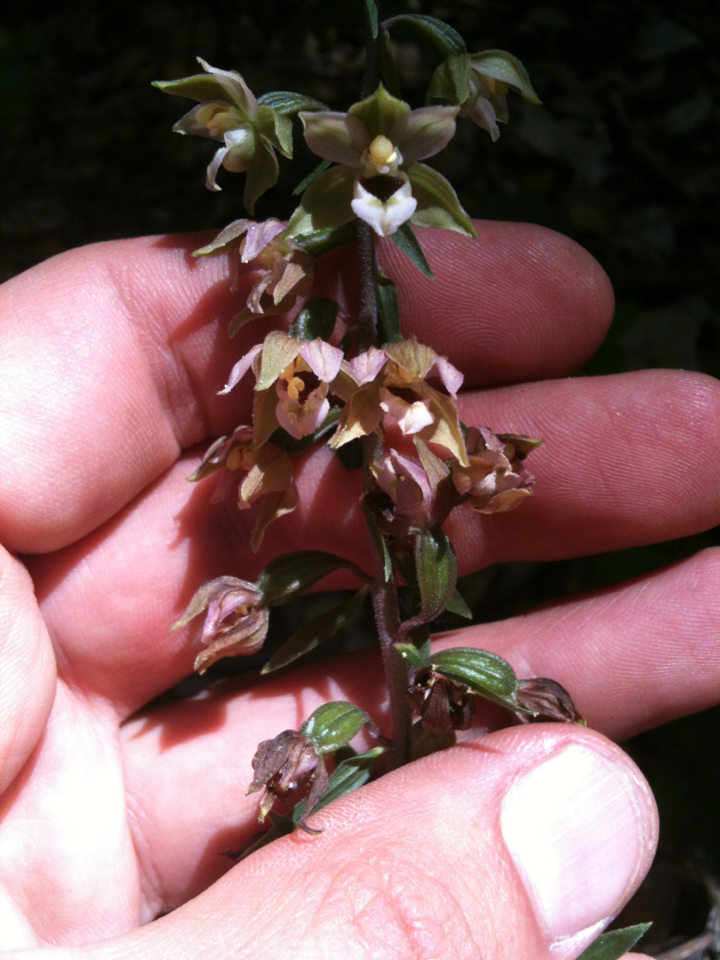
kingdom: Plantae
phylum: Tracheophyta
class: Liliopsida
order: Asparagales
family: Orchidaceae
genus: Epipactis
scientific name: Epipactis helleborine
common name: Broad-leaved helleborine
